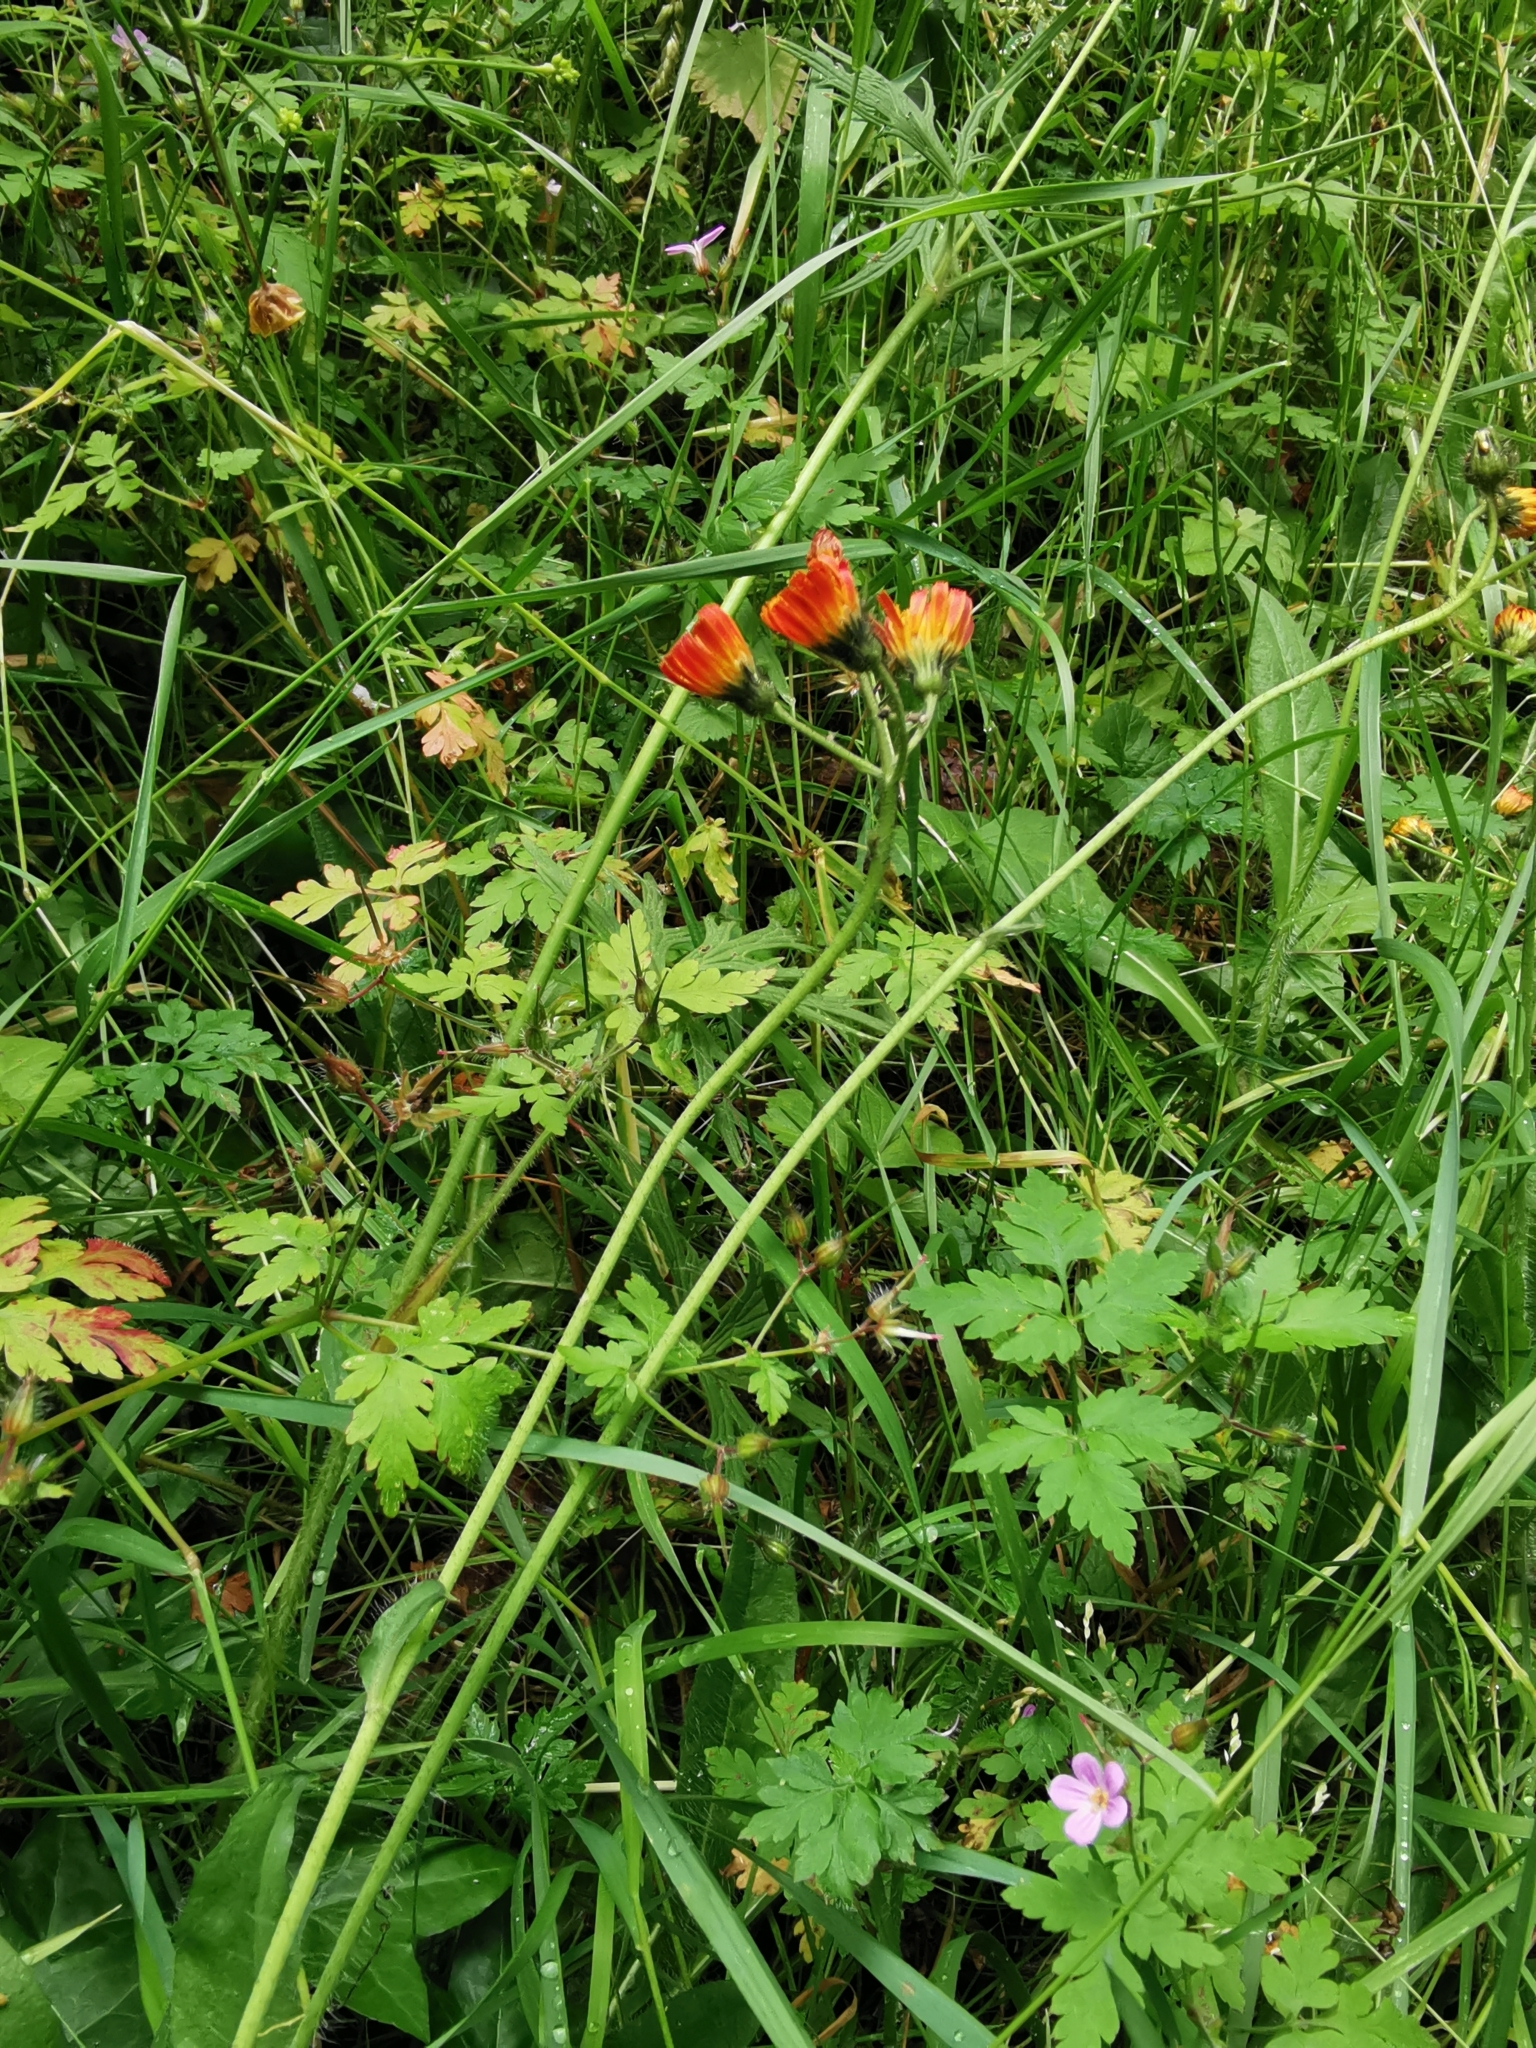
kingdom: Plantae
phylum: Tracheophyta
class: Magnoliopsida
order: Asterales
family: Asteraceae
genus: Pilosella
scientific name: Pilosella aurantiaca
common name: Fox-and-cubs
